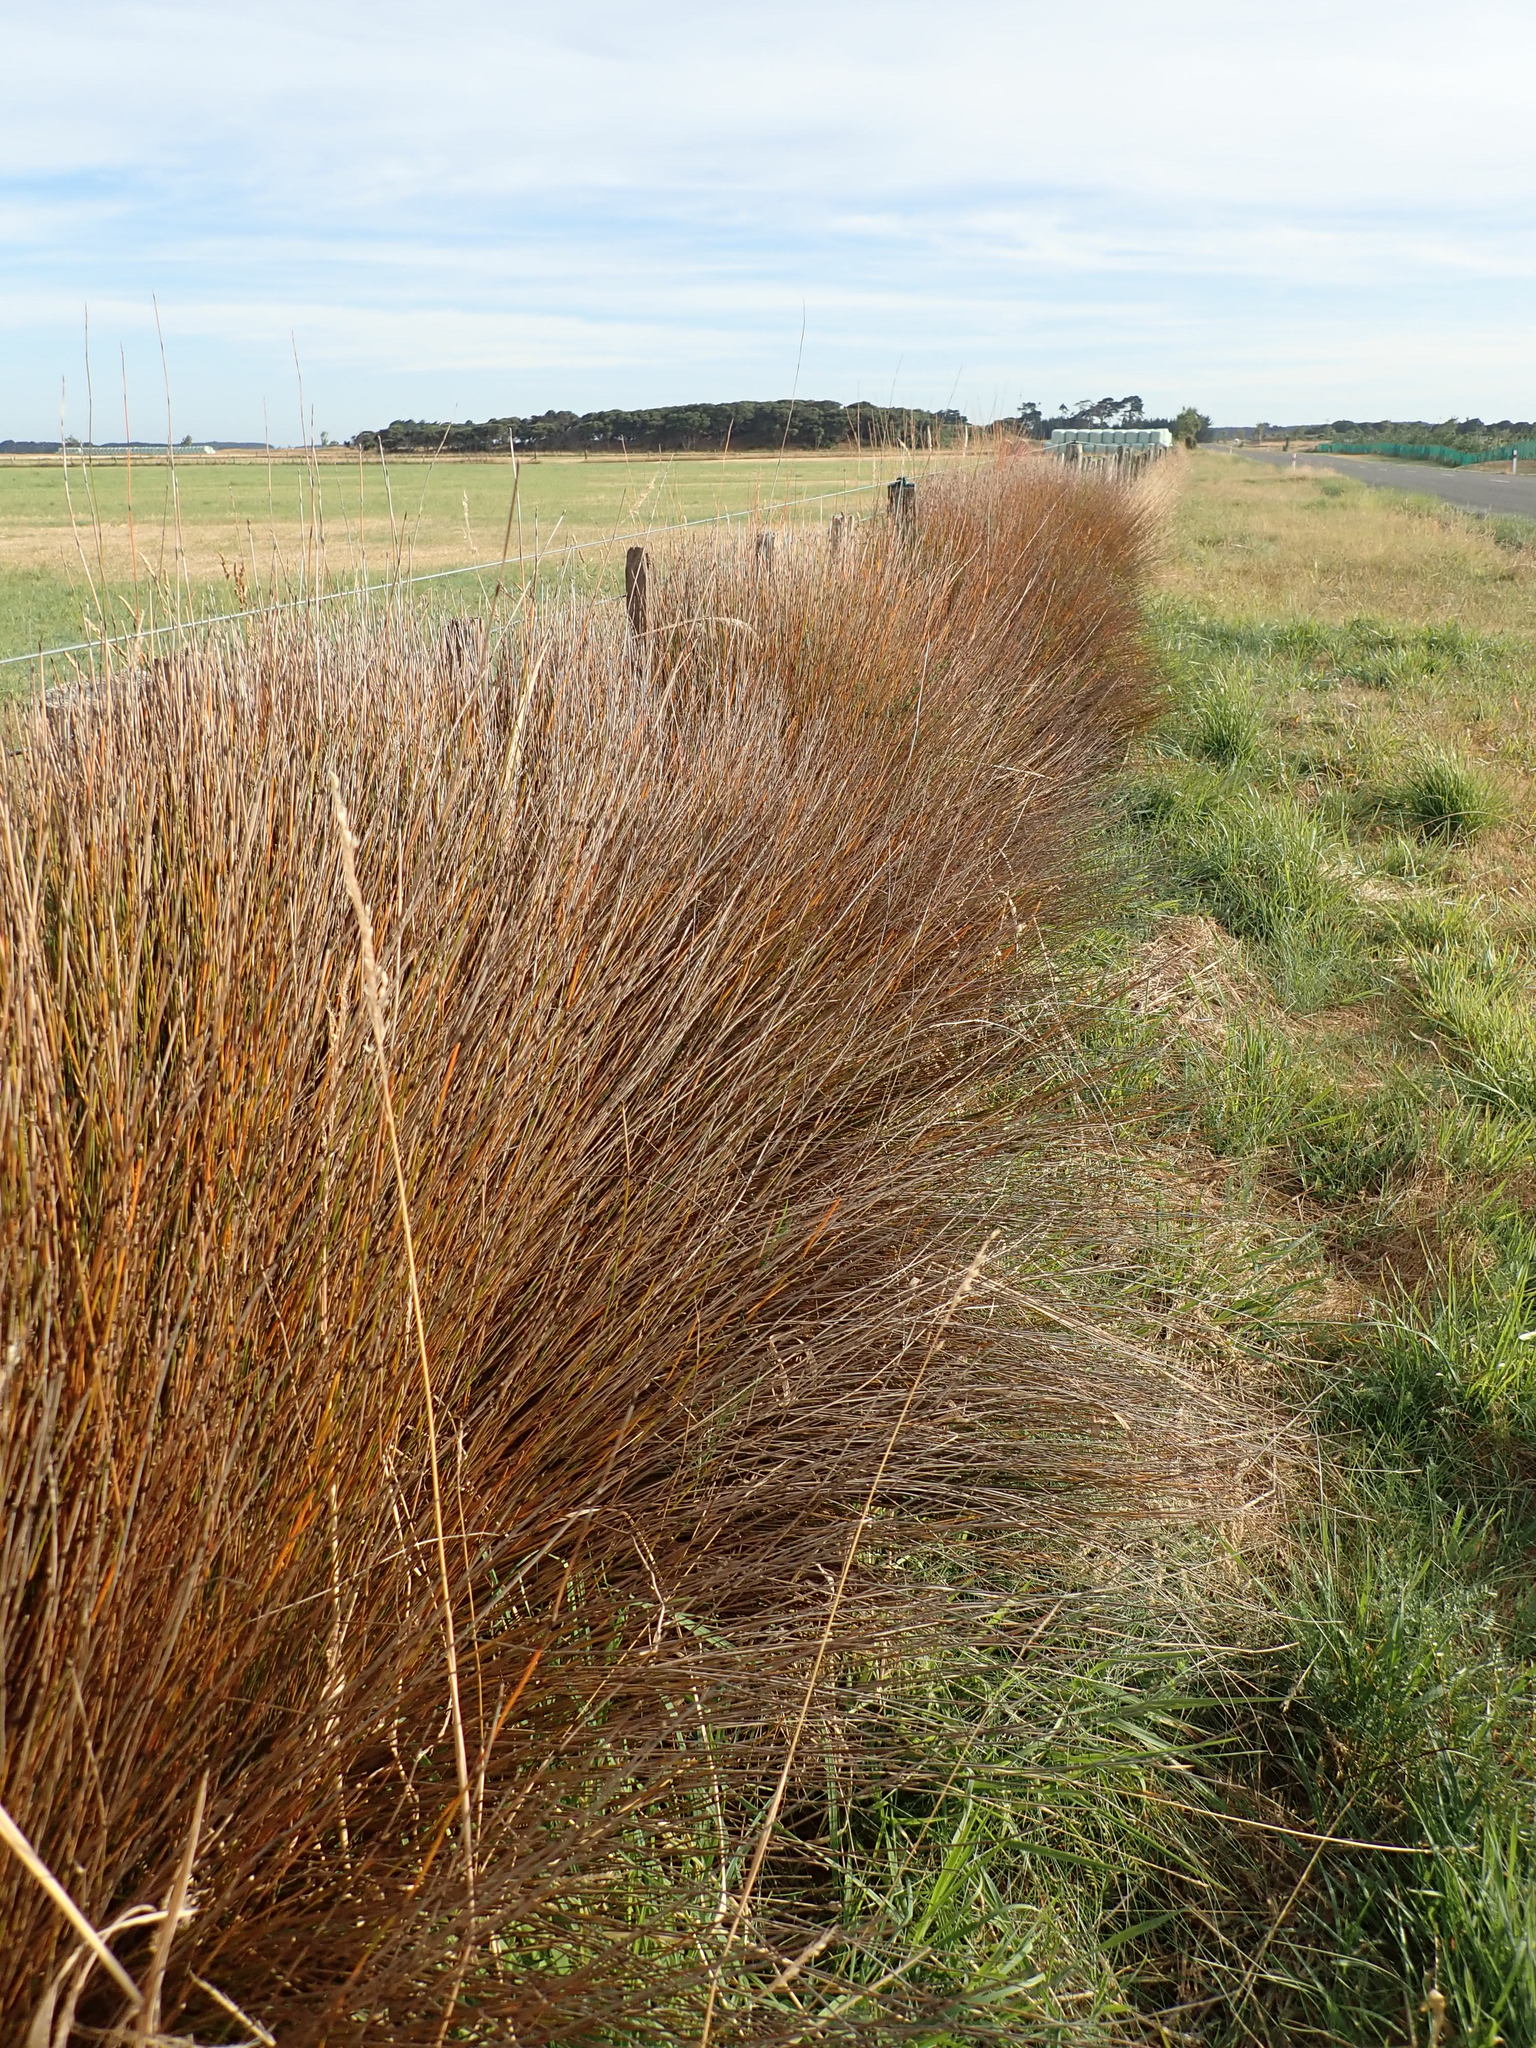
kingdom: Plantae
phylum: Tracheophyta
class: Liliopsida
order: Poales
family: Restionaceae
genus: Apodasmia
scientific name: Apodasmia similis
